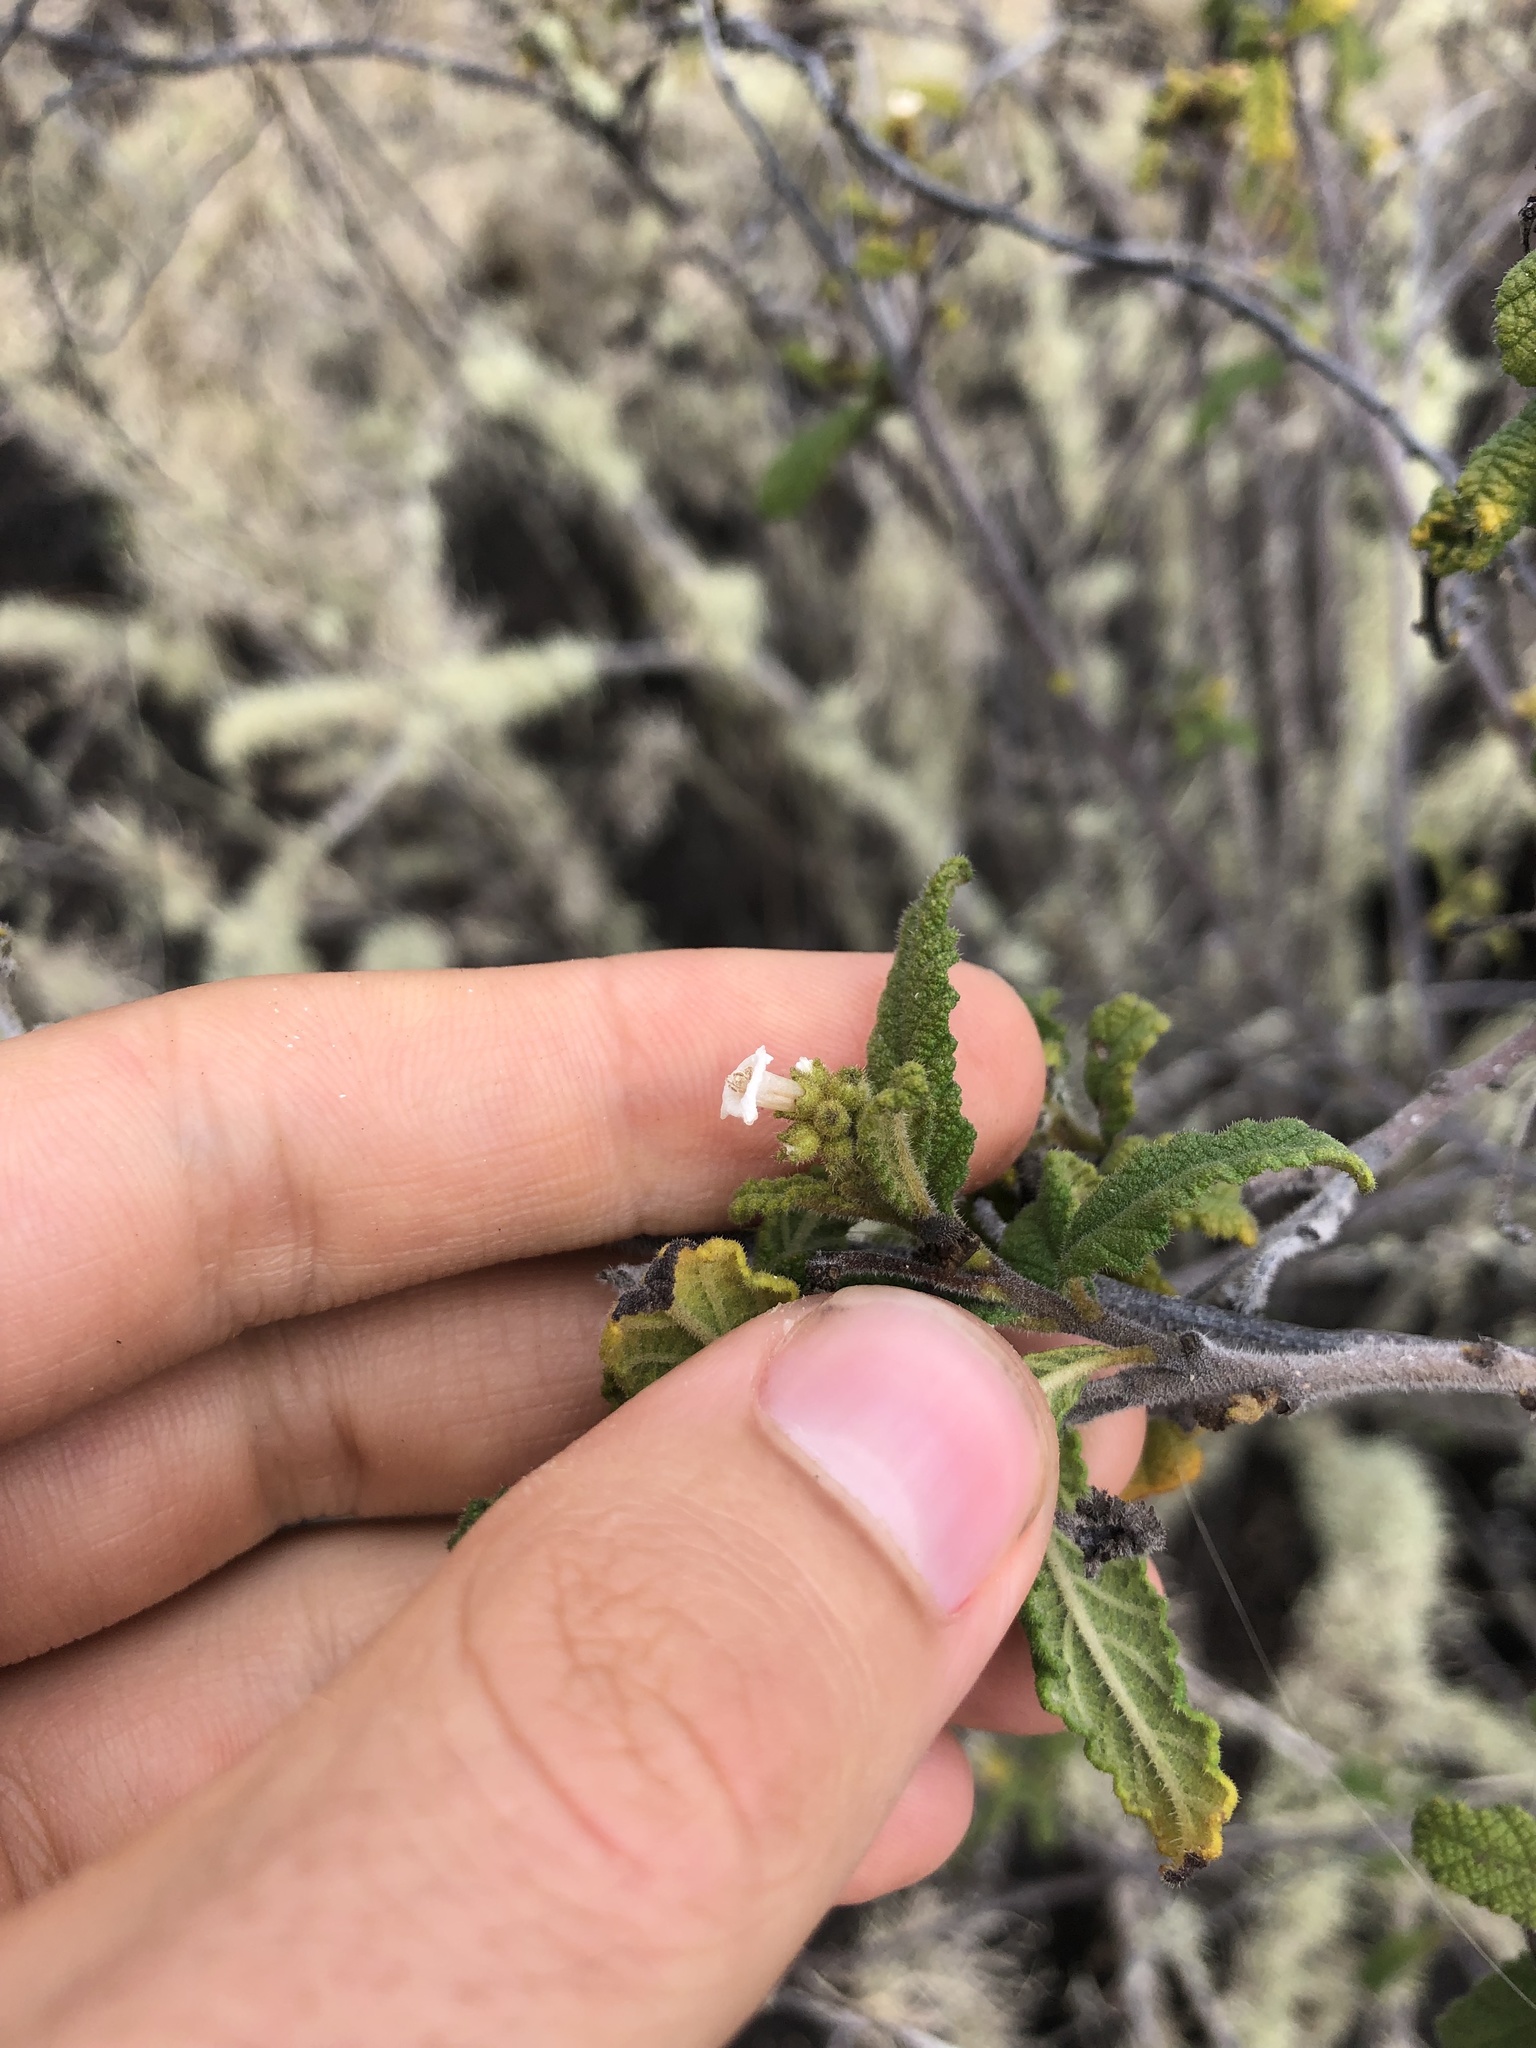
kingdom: Plantae
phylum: Tracheophyta
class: Magnoliopsida
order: Boraginales
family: Cordiaceae
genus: Varronia
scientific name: Varronia leucophlyctis
